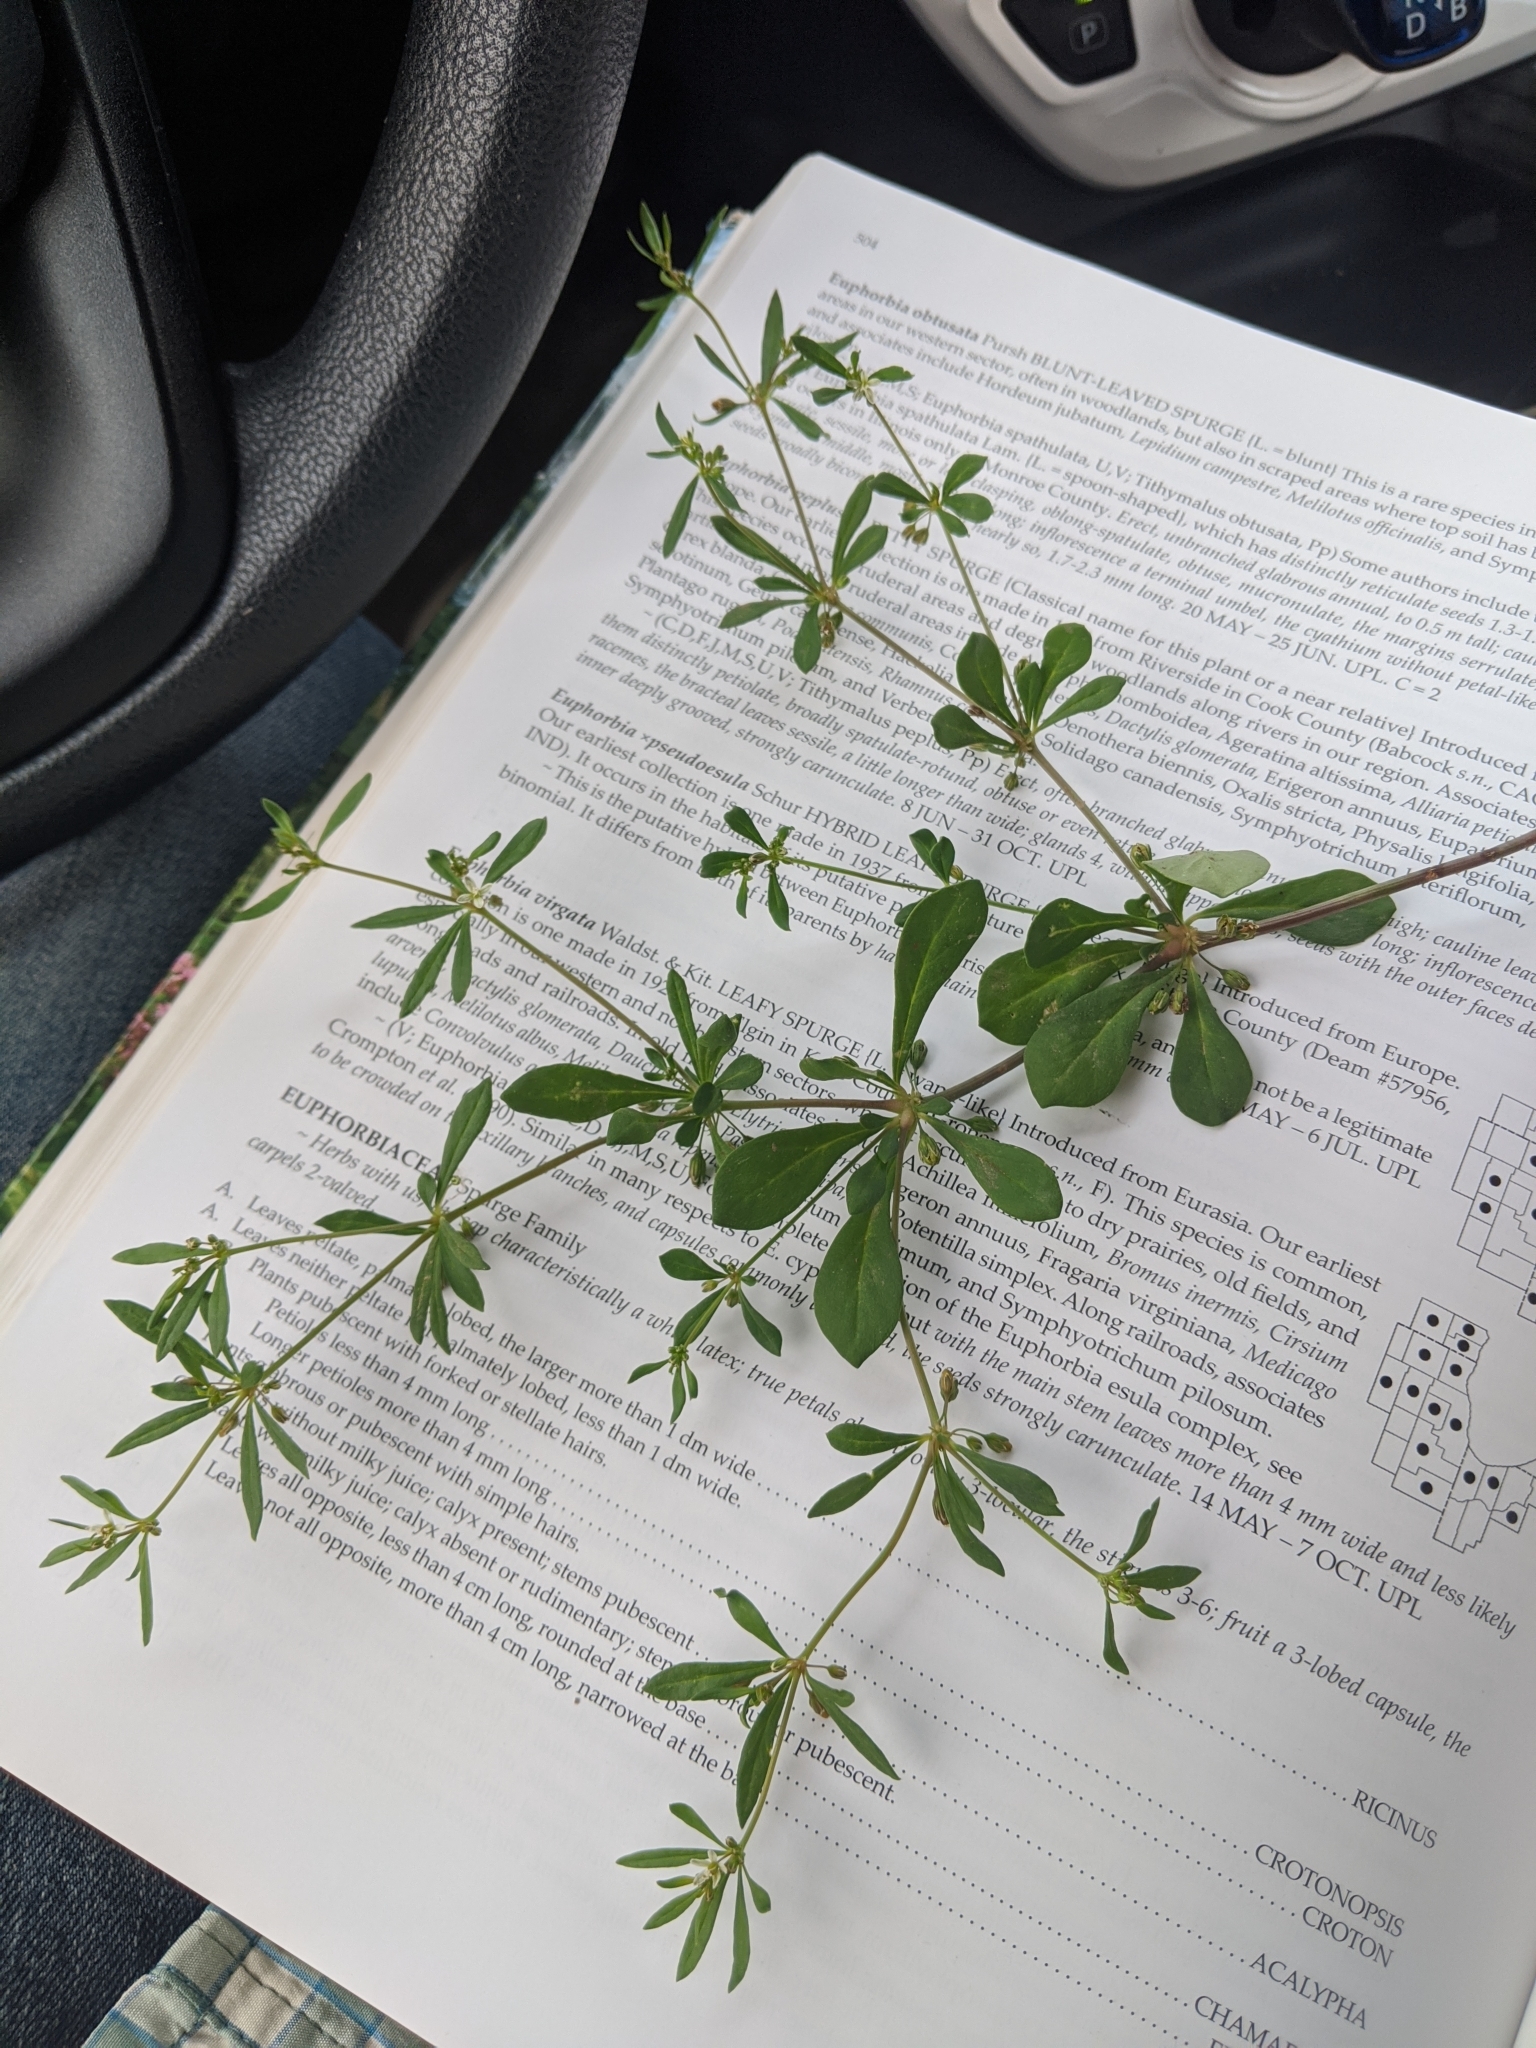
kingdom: Plantae
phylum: Tracheophyta
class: Magnoliopsida
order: Caryophyllales
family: Molluginaceae
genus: Mollugo
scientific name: Mollugo verticillata
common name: Green carpetweed
